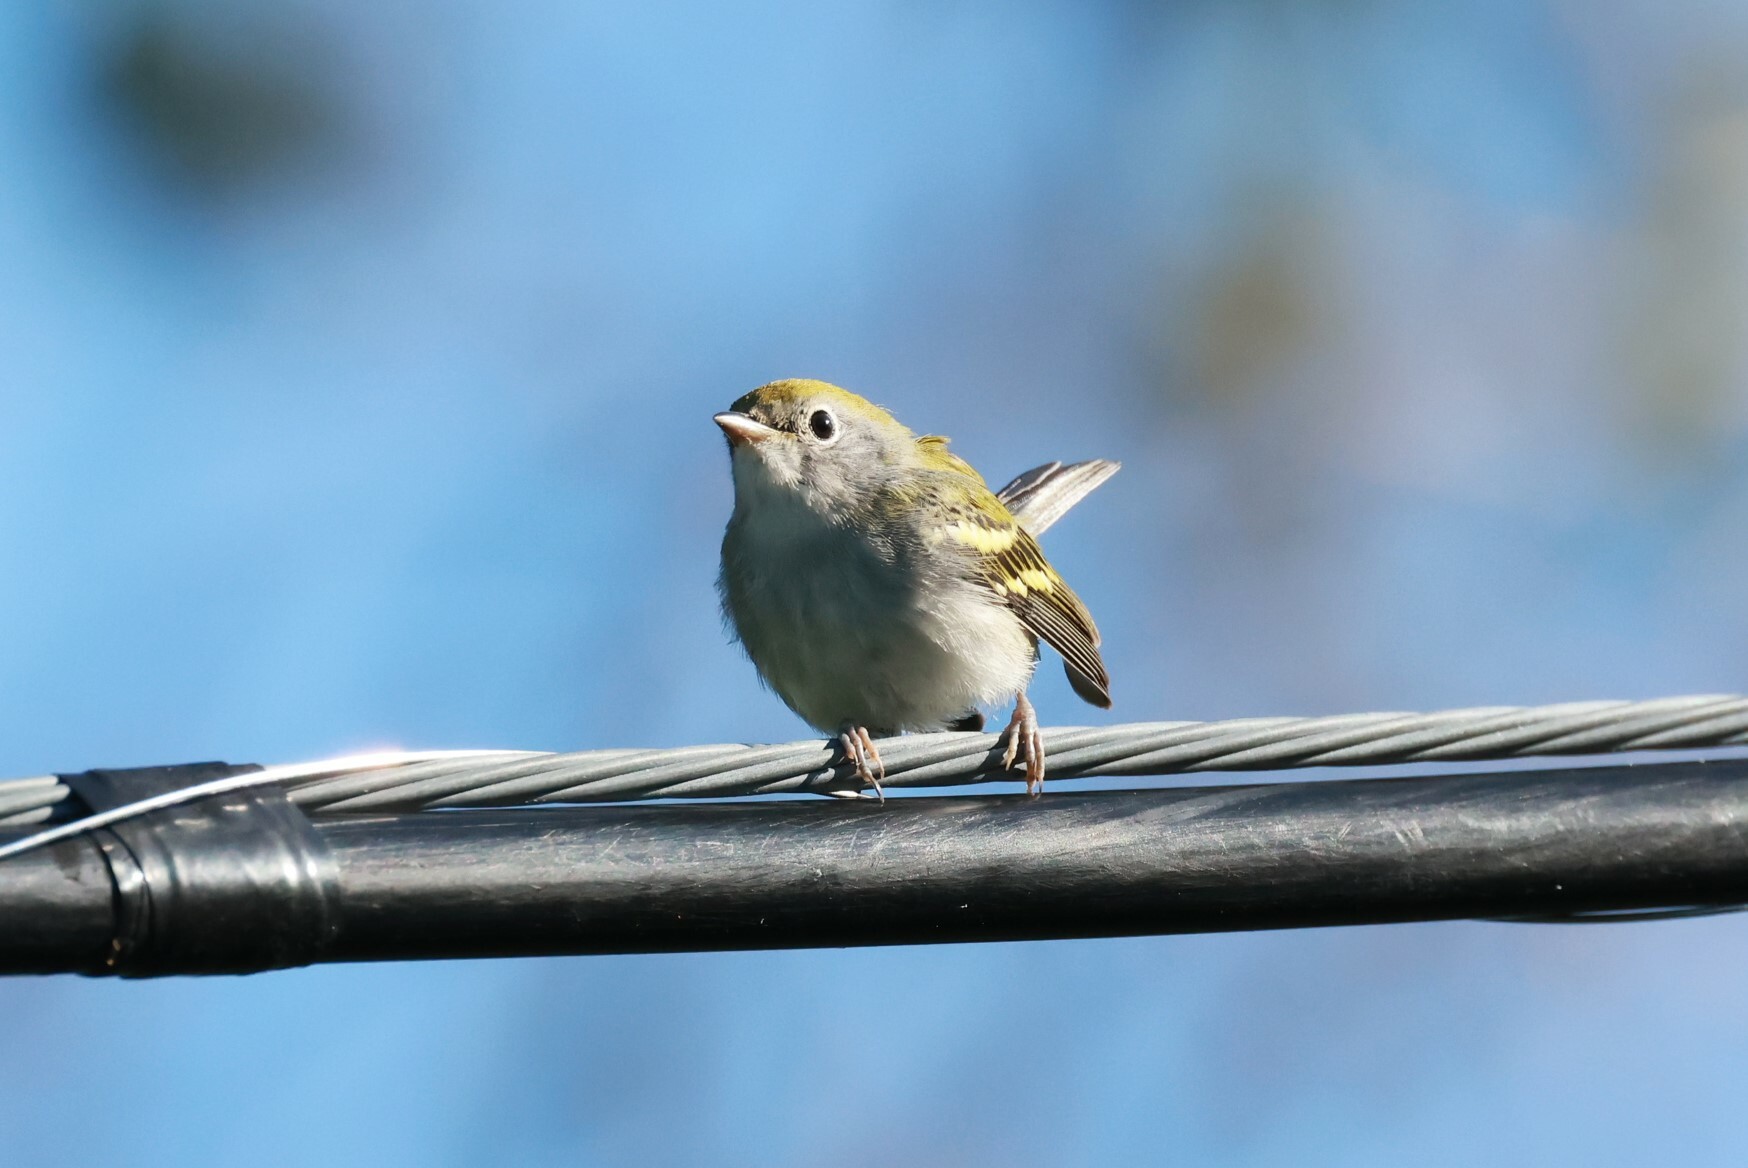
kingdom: Animalia
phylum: Chordata
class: Aves
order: Passeriformes
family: Parulidae
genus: Setophaga
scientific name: Setophaga pensylvanica
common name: Chestnut-sided warbler
